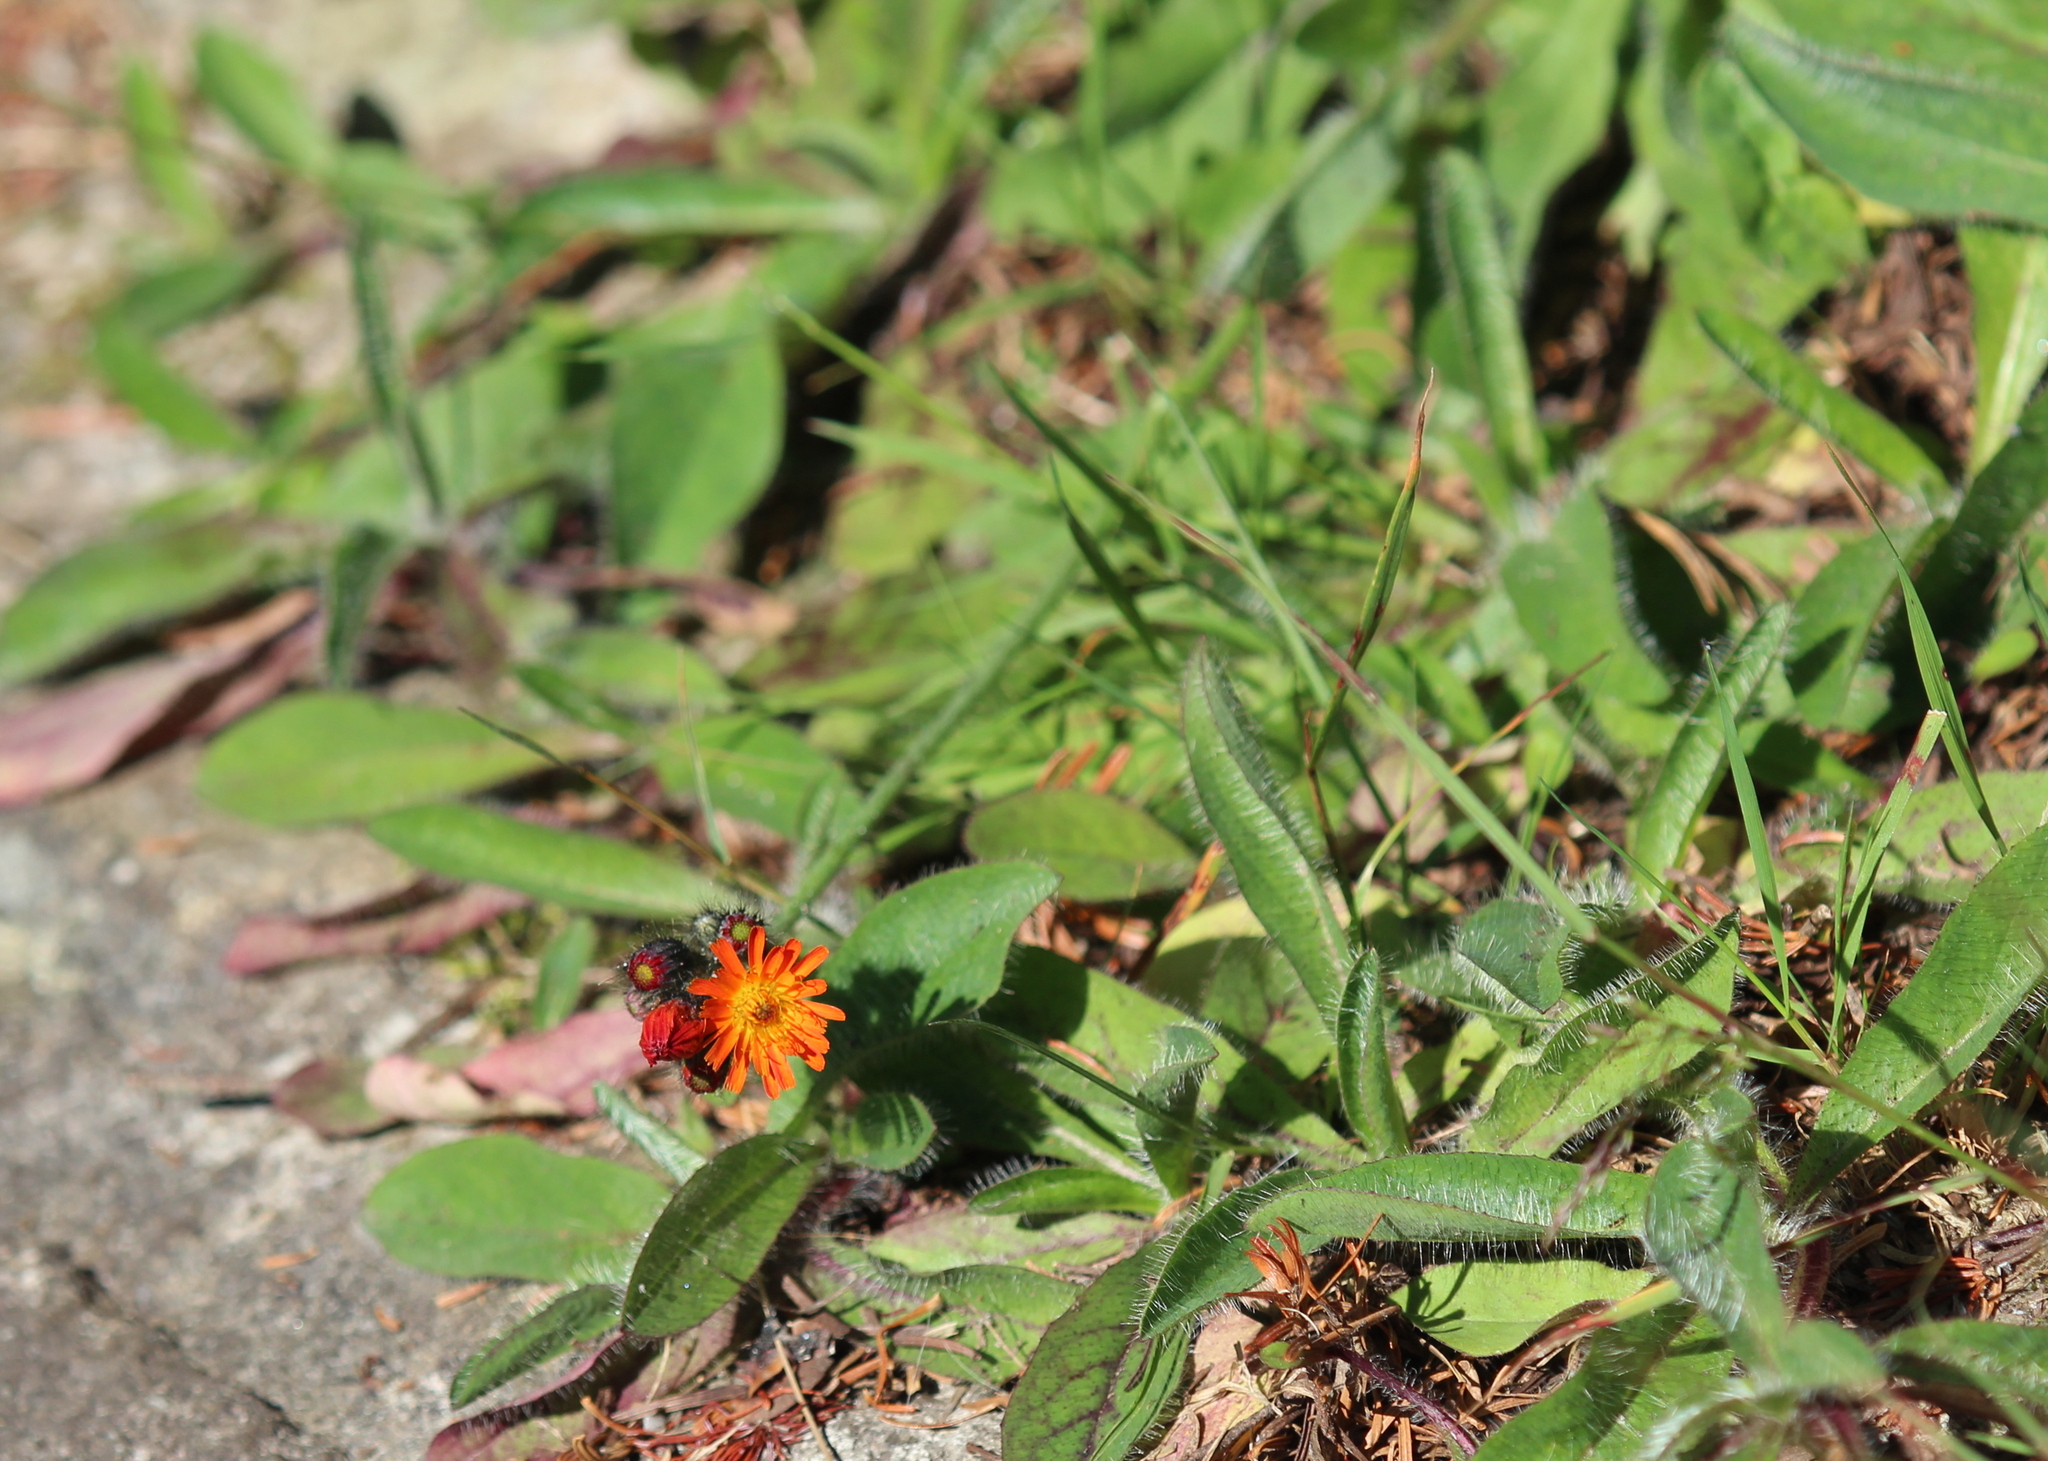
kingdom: Plantae
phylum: Tracheophyta
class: Magnoliopsida
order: Asterales
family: Asteraceae
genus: Pilosella
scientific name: Pilosella aurantiaca
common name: Fox-and-cubs
